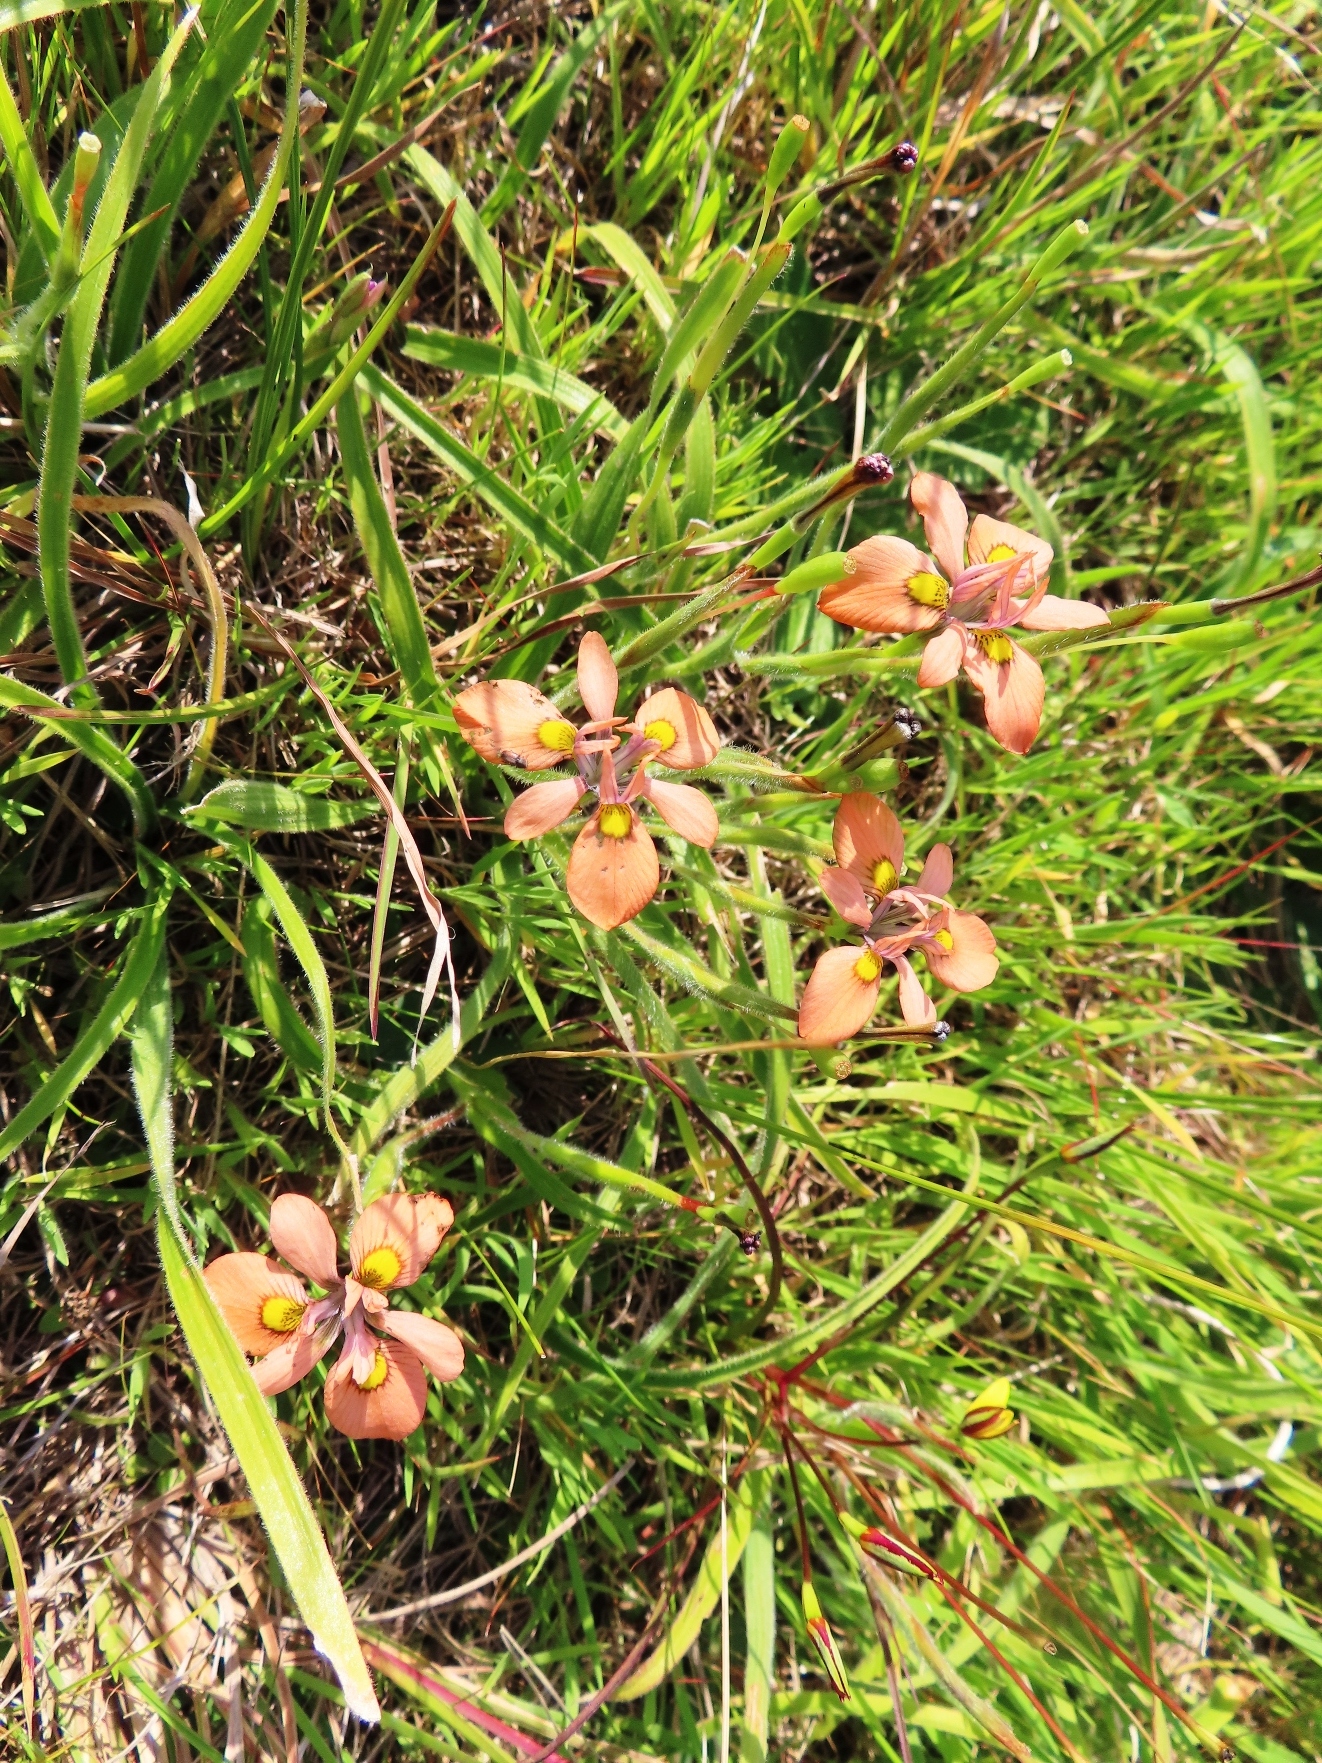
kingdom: Plantae
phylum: Tracheophyta
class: Liliopsida
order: Asparagales
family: Iridaceae
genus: Moraea
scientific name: Moraea papilionacea
